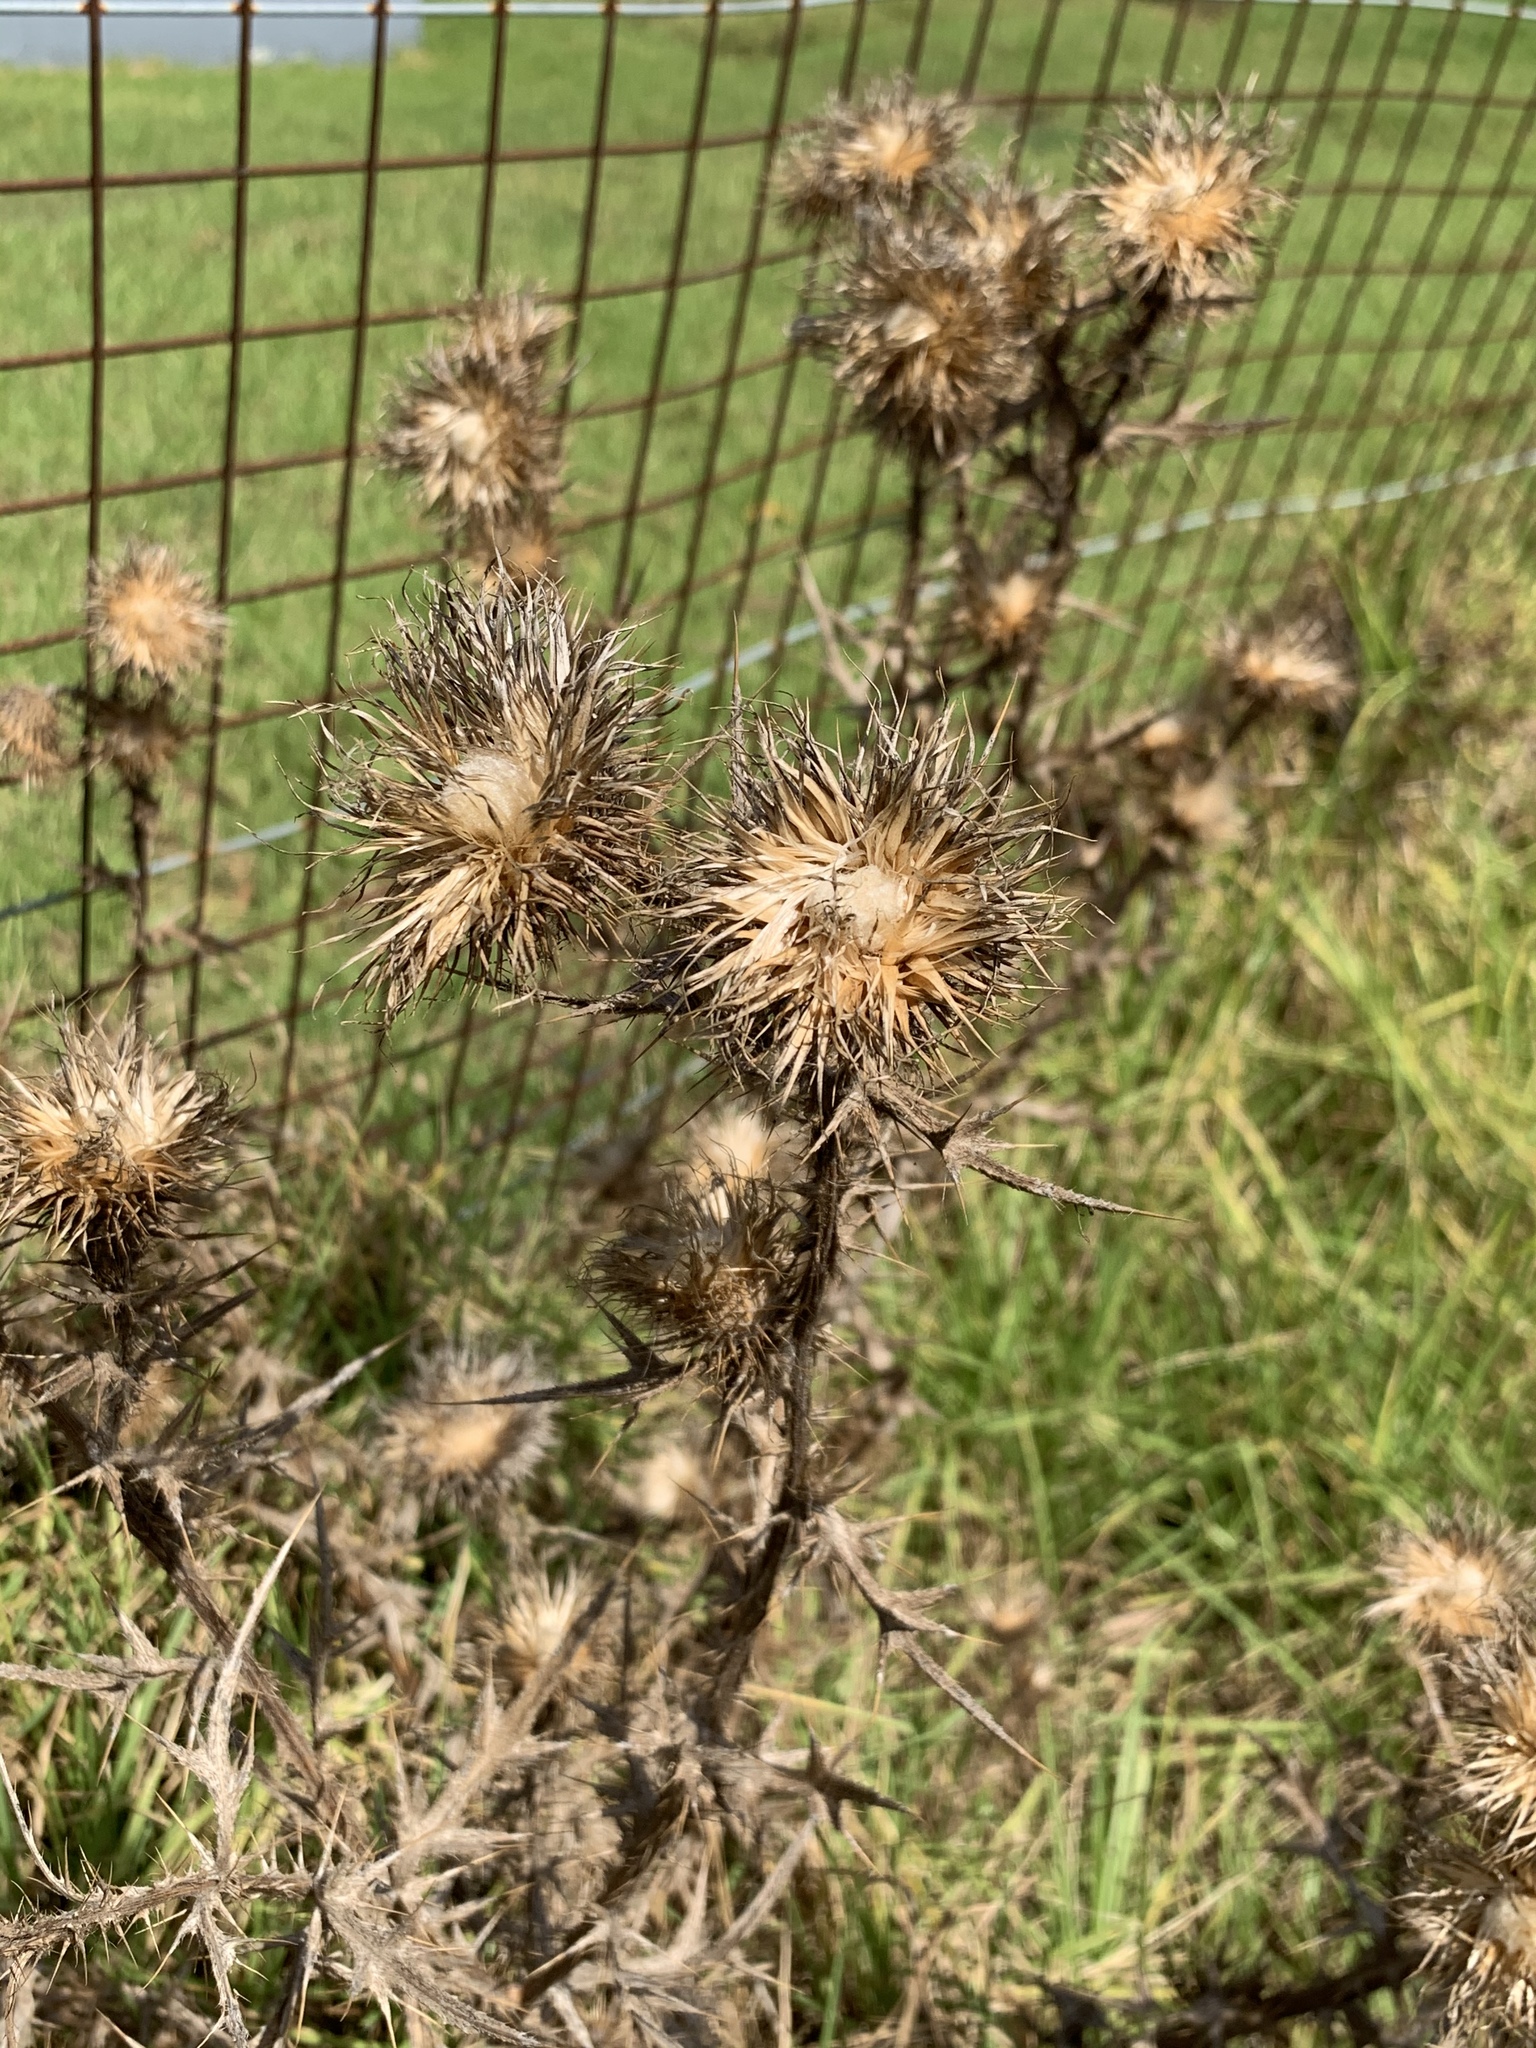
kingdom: Plantae
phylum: Tracheophyta
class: Magnoliopsida
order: Asterales
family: Asteraceae
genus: Cirsium
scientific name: Cirsium vulgare
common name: Bull thistle
